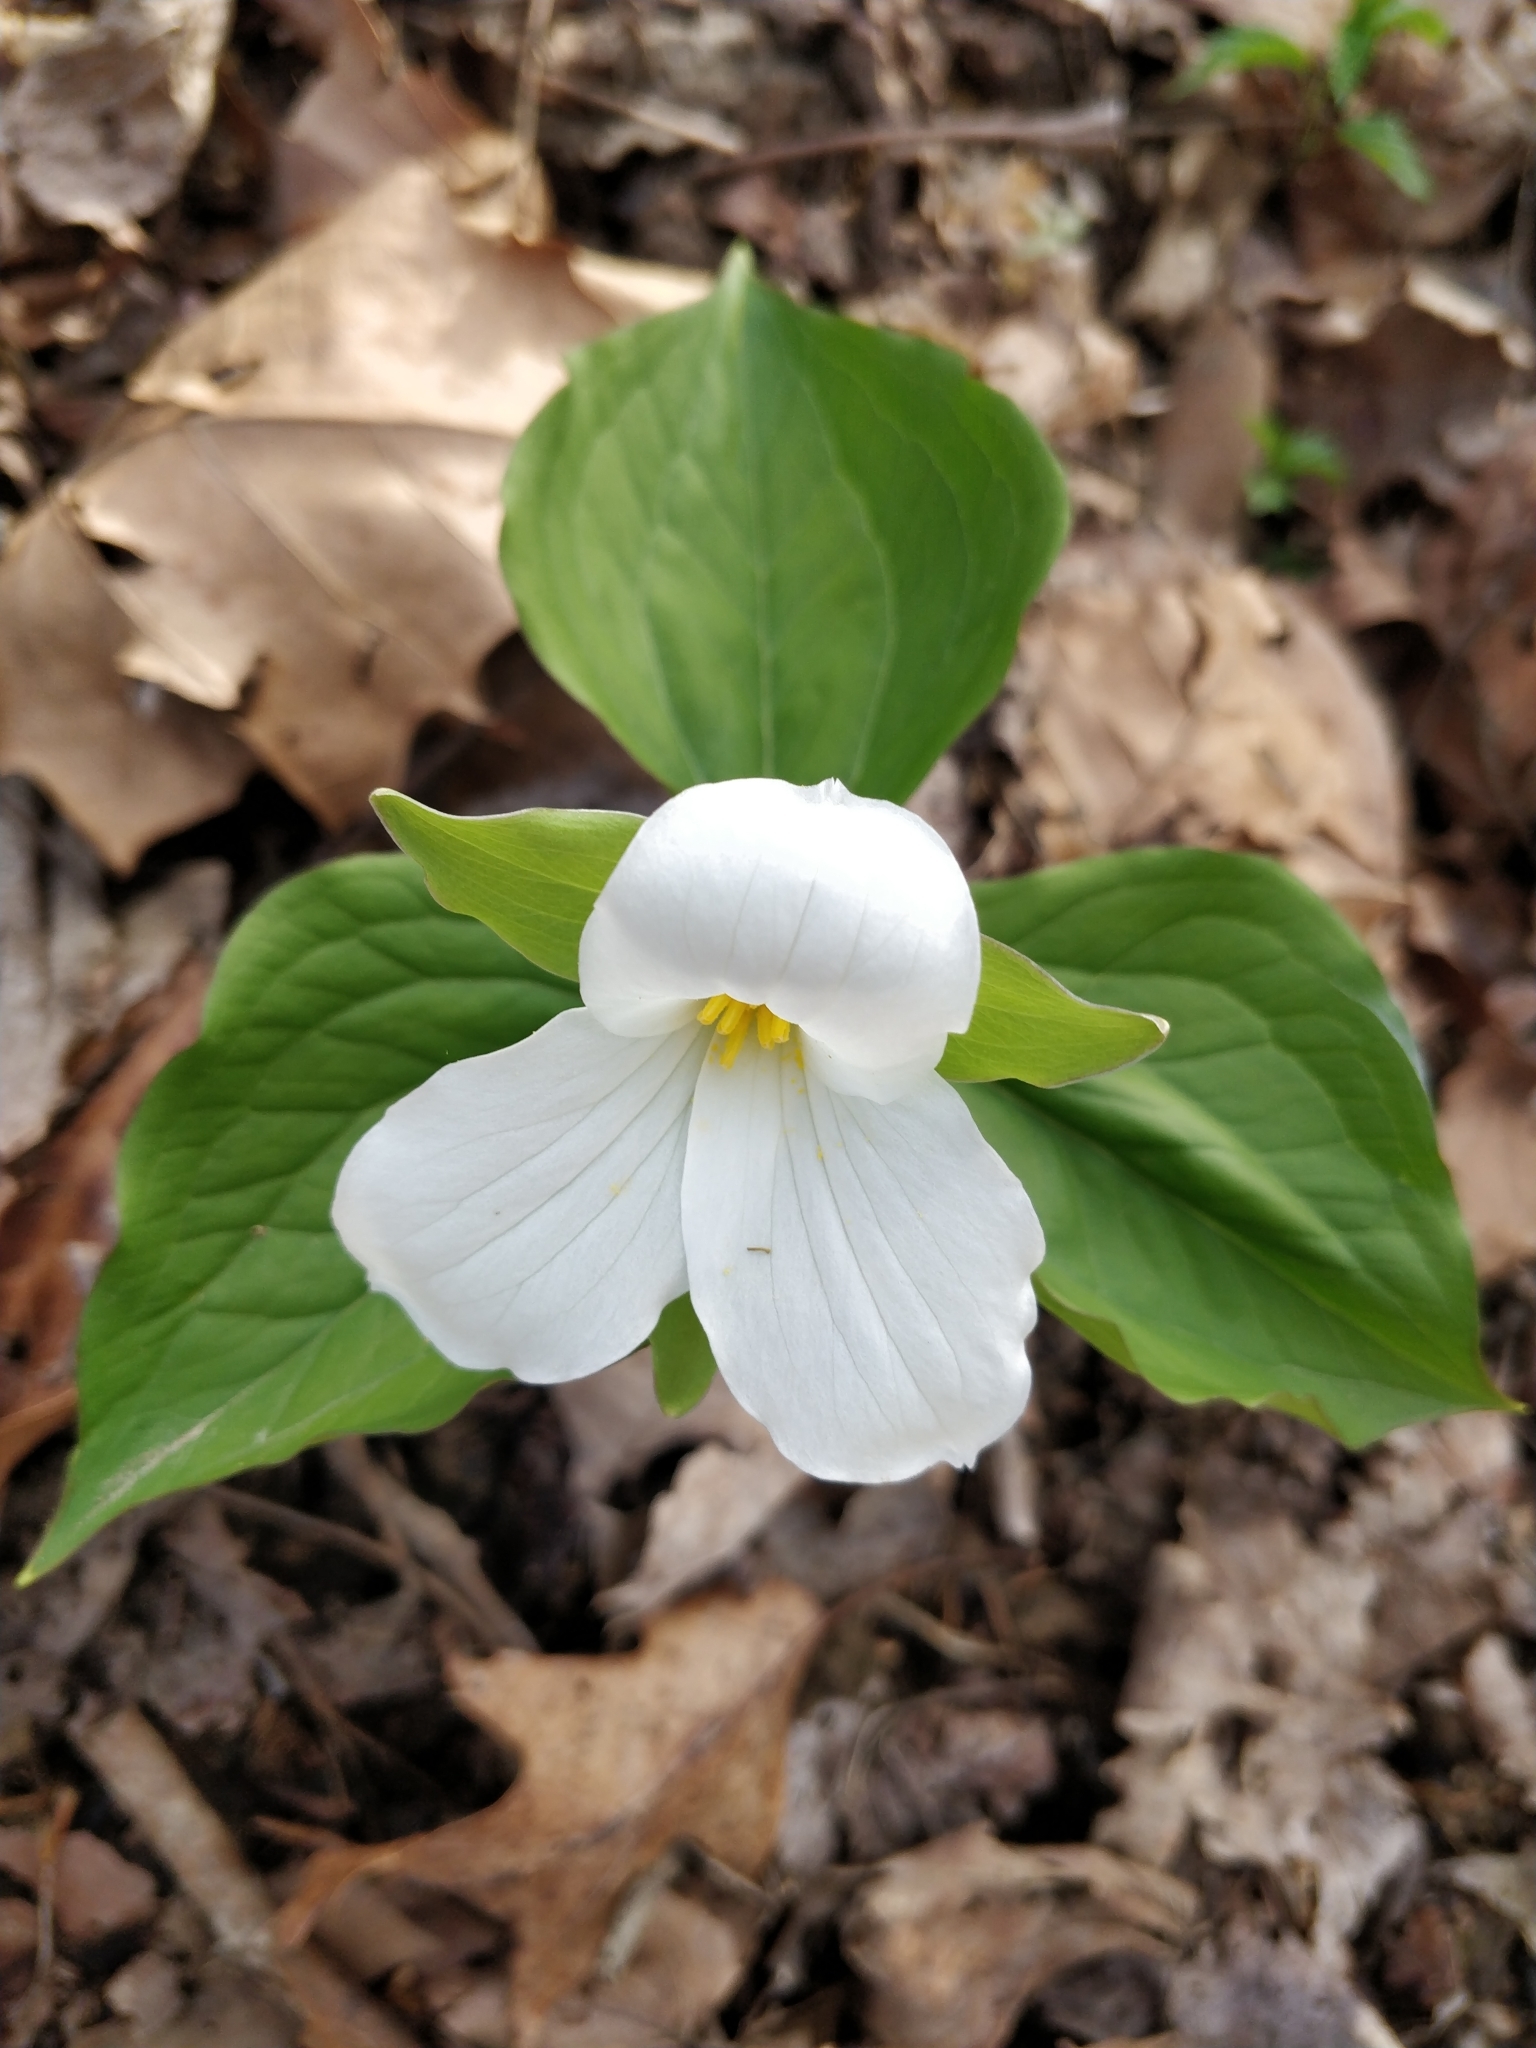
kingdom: Plantae
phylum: Tracheophyta
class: Liliopsida
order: Liliales
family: Melanthiaceae
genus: Trillium
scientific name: Trillium grandiflorum
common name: Great white trillium
